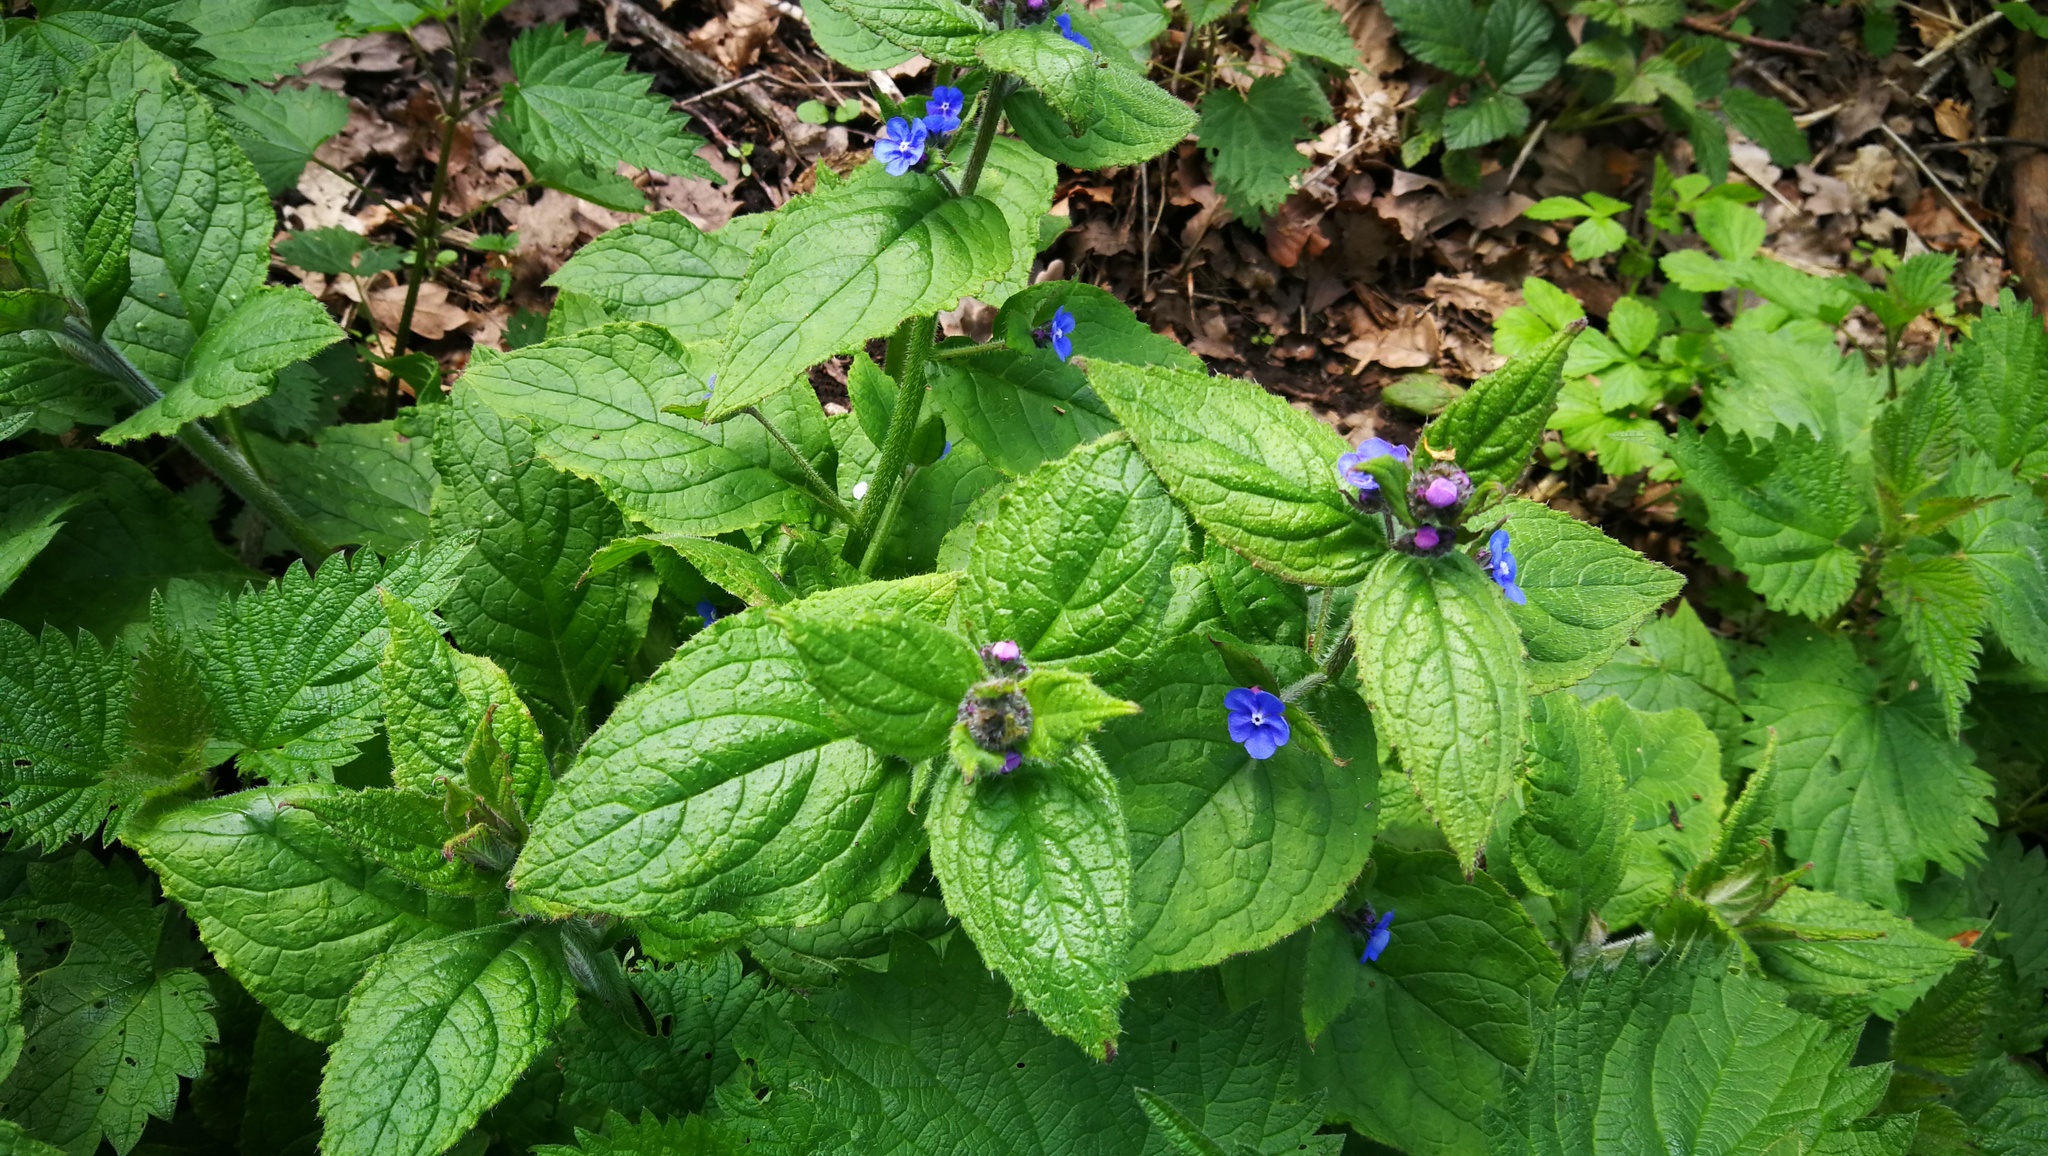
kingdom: Plantae
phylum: Tracheophyta
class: Magnoliopsida
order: Boraginales
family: Boraginaceae
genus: Pentaglottis
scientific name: Pentaglottis sempervirens
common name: Green alkanet
